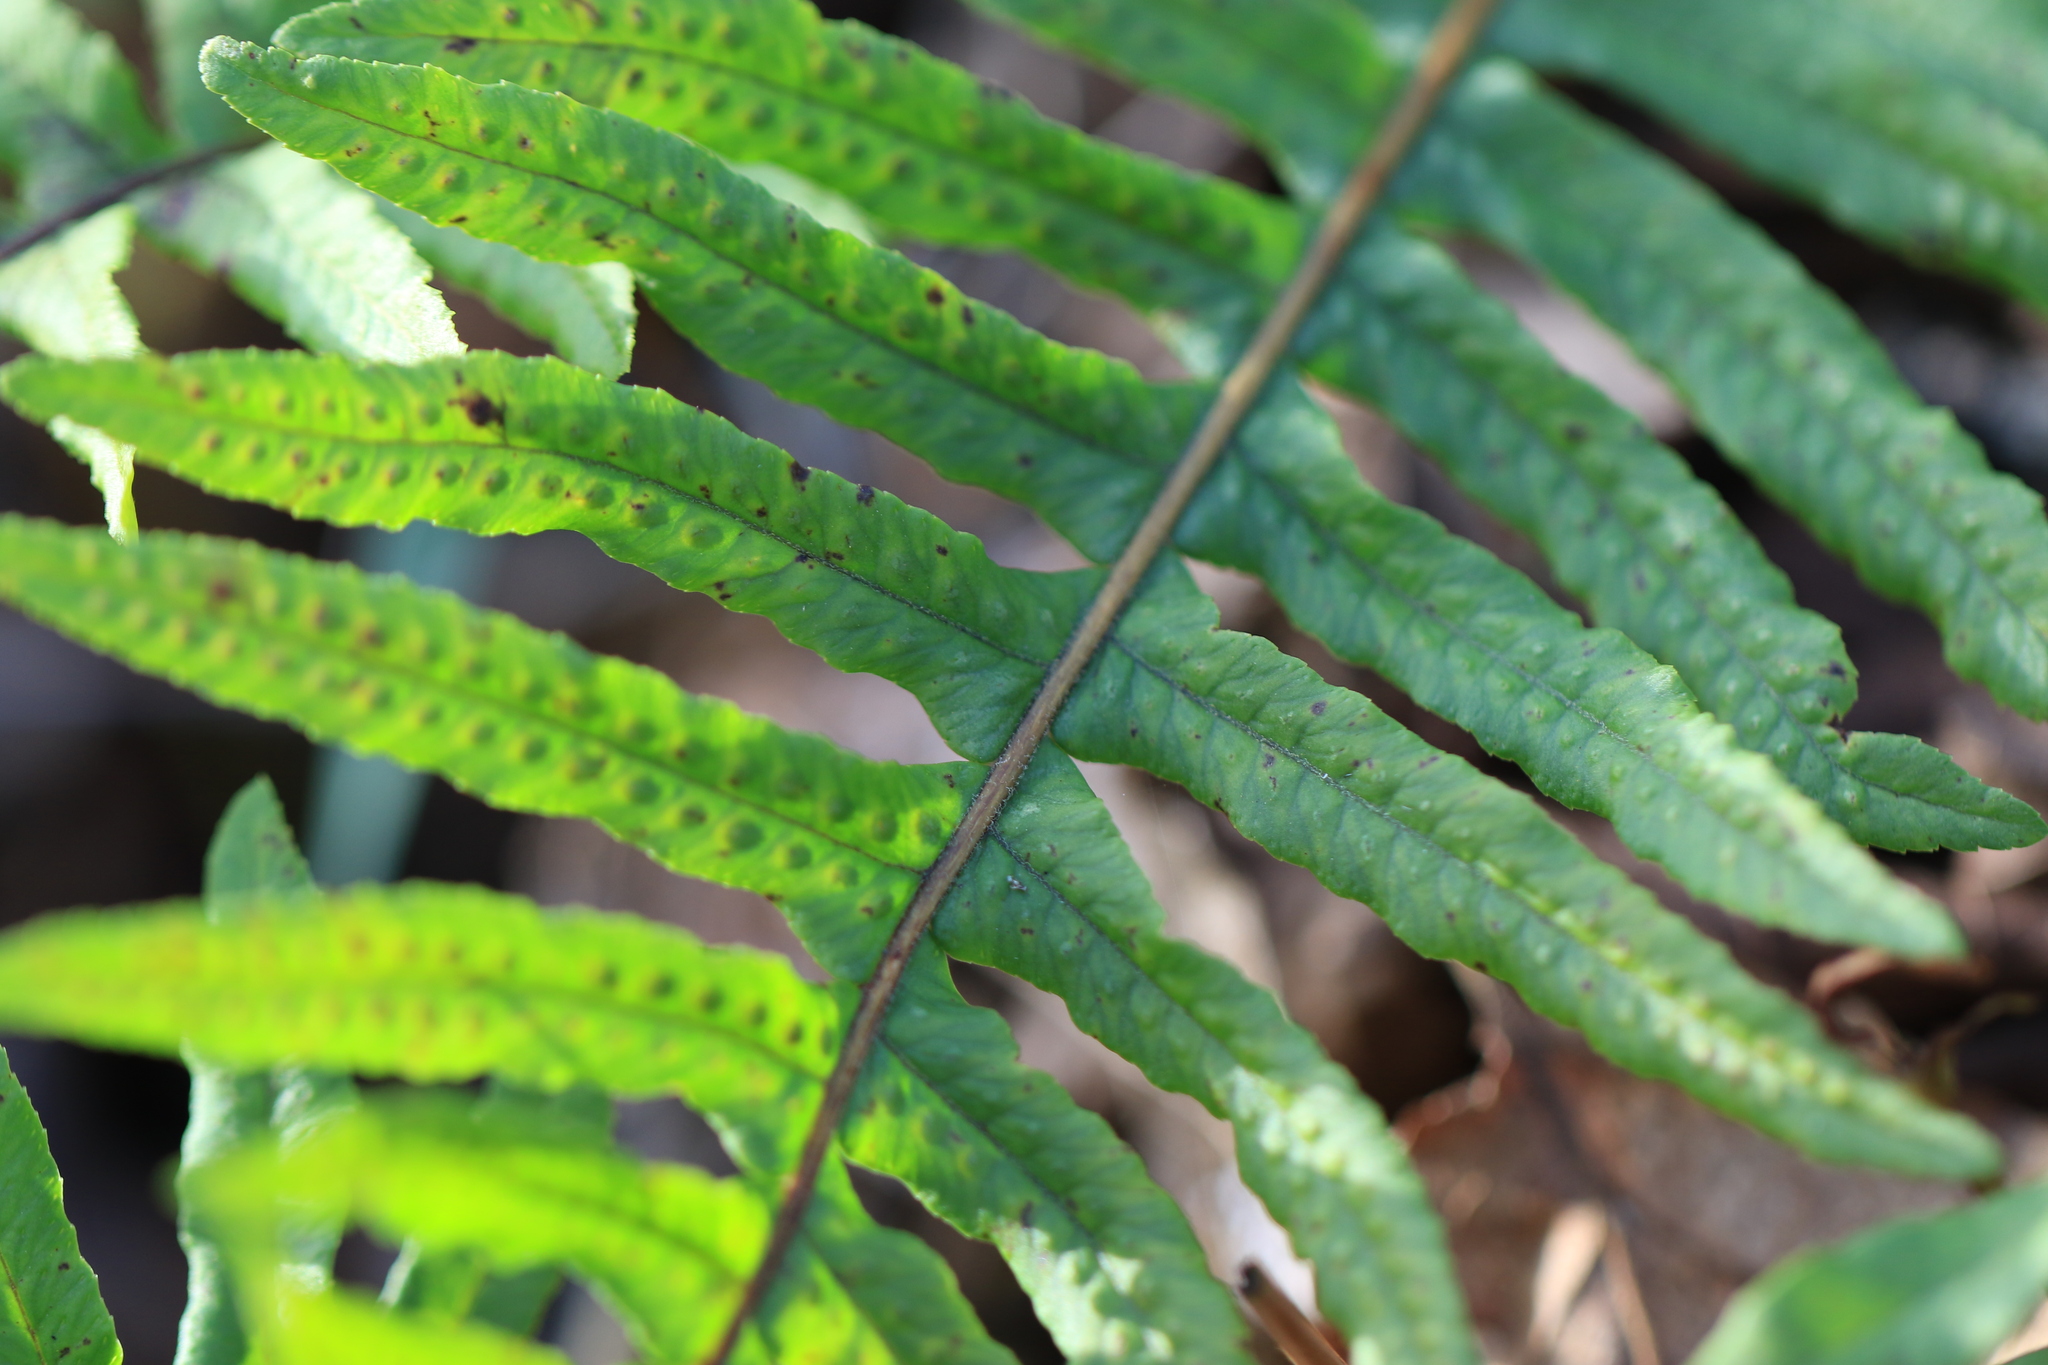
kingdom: Plantae
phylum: Tracheophyta
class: Polypodiopsida
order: Polypodiales
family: Polypodiaceae
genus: Polypodium
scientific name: Polypodium glycyrrhiza
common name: Licorice fern
